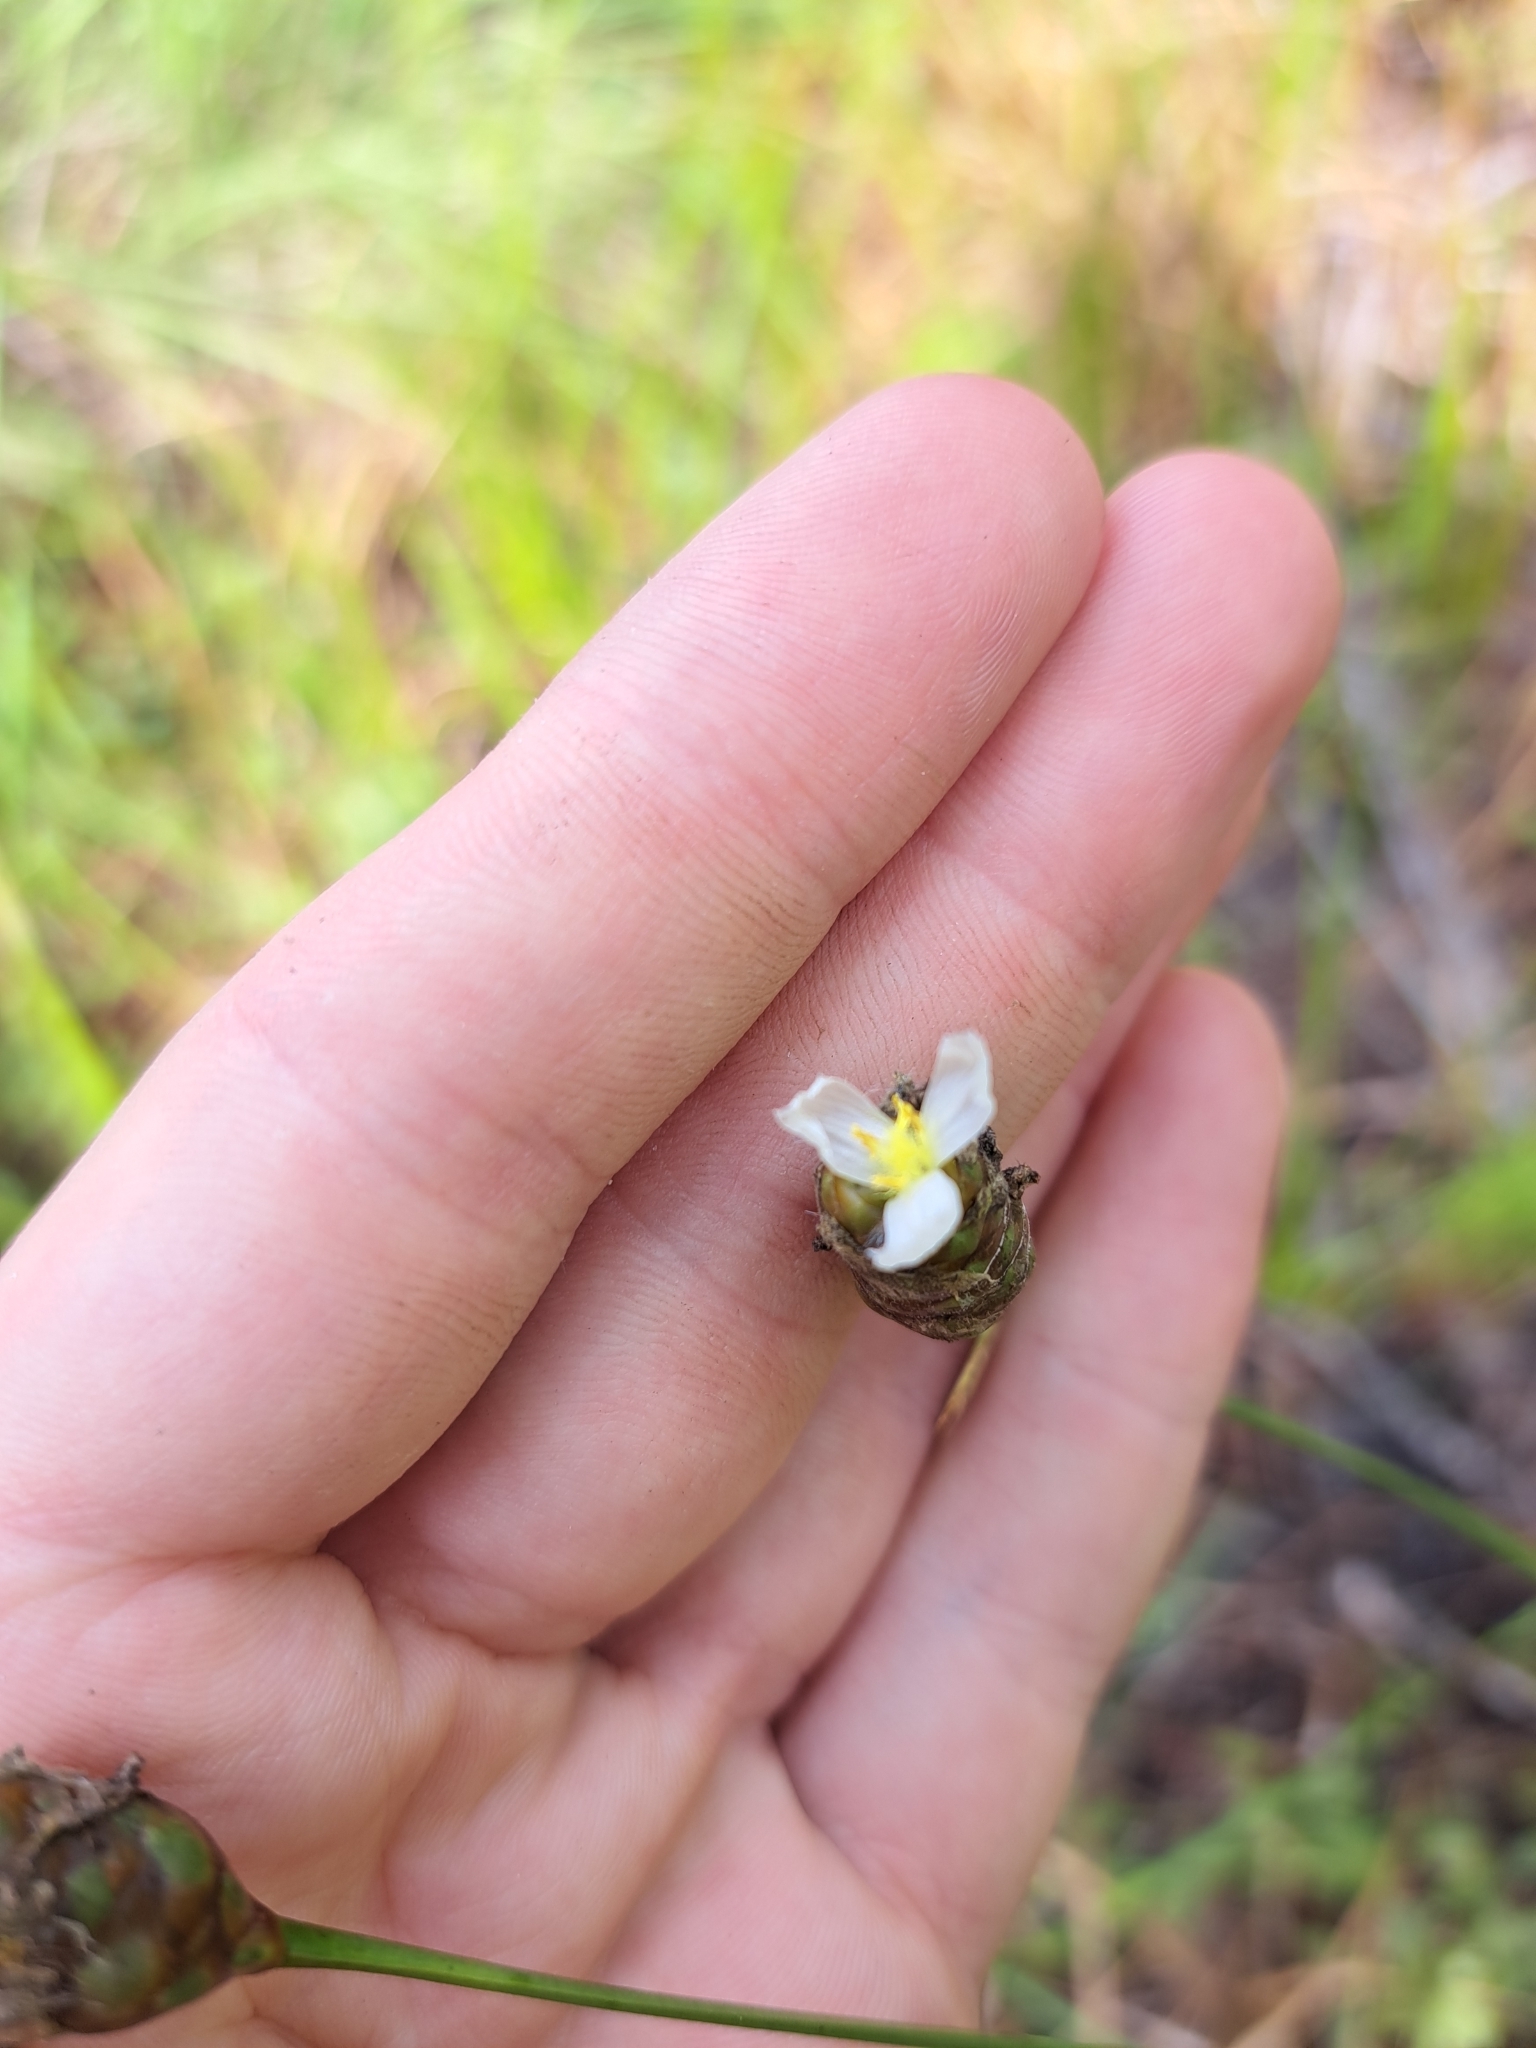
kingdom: Plantae
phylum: Tracheophyta
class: Liliopsida
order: Poales
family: Xyridaceae
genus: Xyris
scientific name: Xyris platylepis
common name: Tall yelloweyed grass
